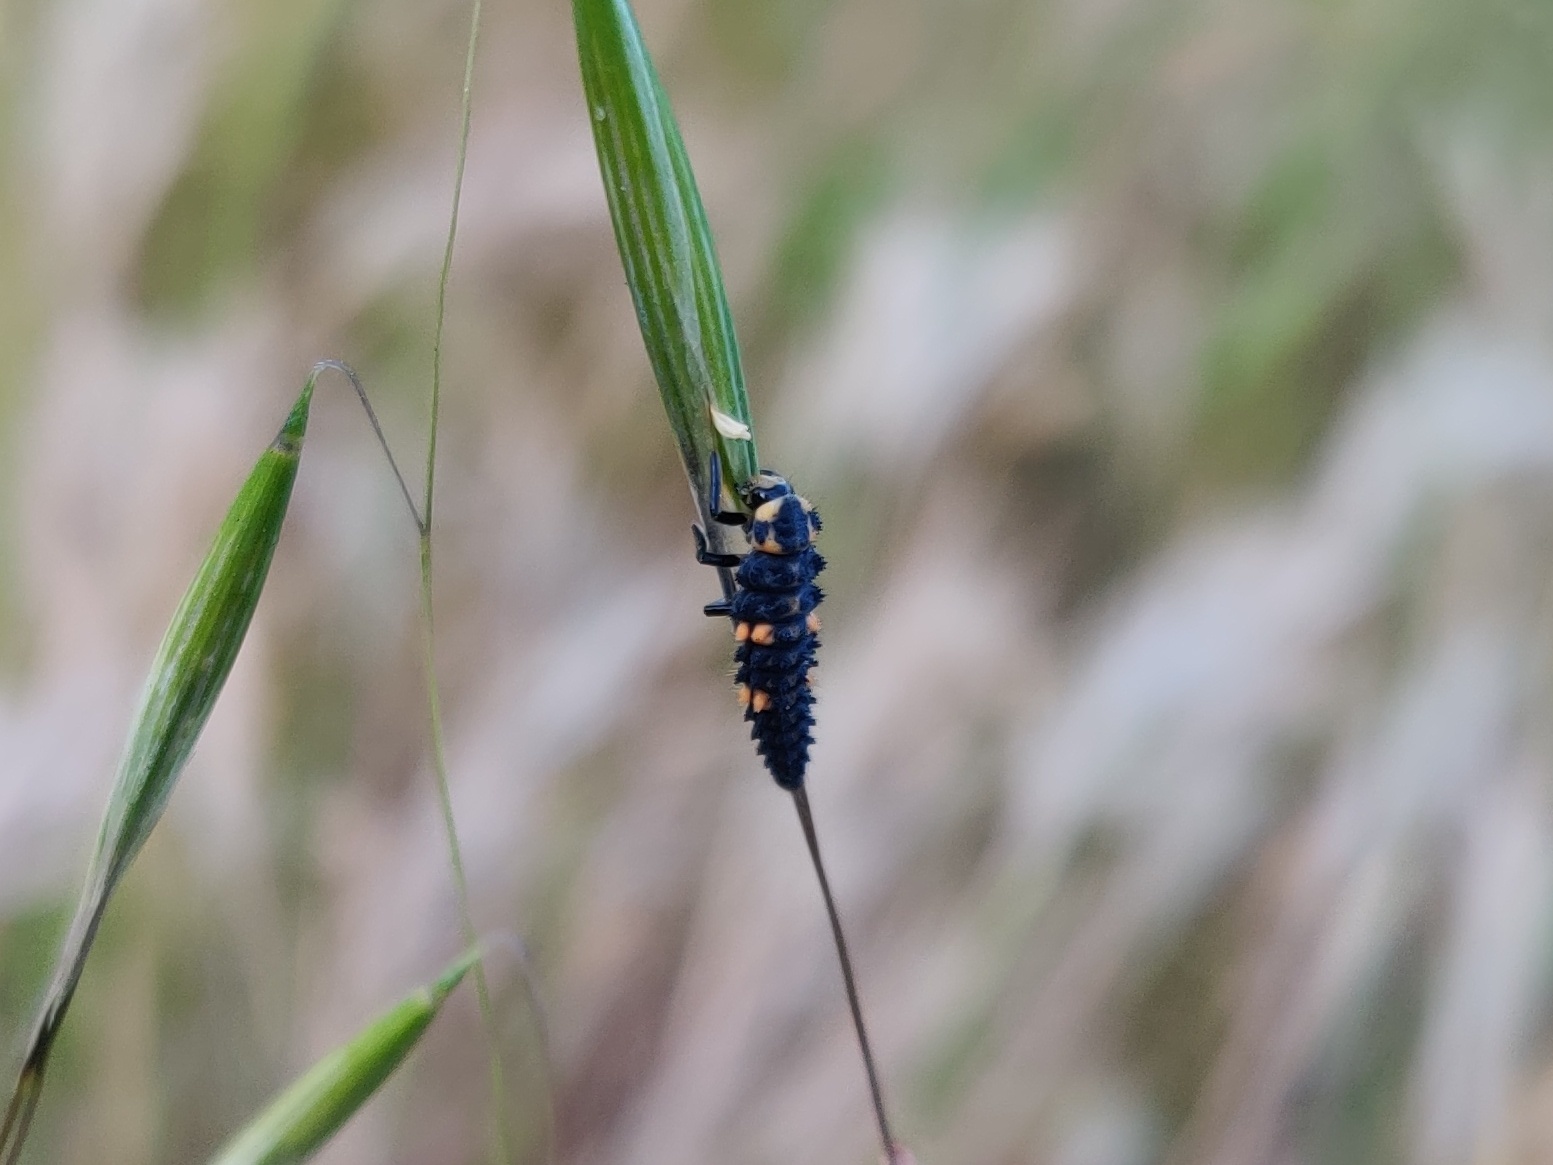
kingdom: Animalia
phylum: Arthropoda
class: Insecta
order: Coleoptera
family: Coccinellidae
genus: Coccinella
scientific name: Coccinella septempunctata
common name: Sevenspotted lady beetle
